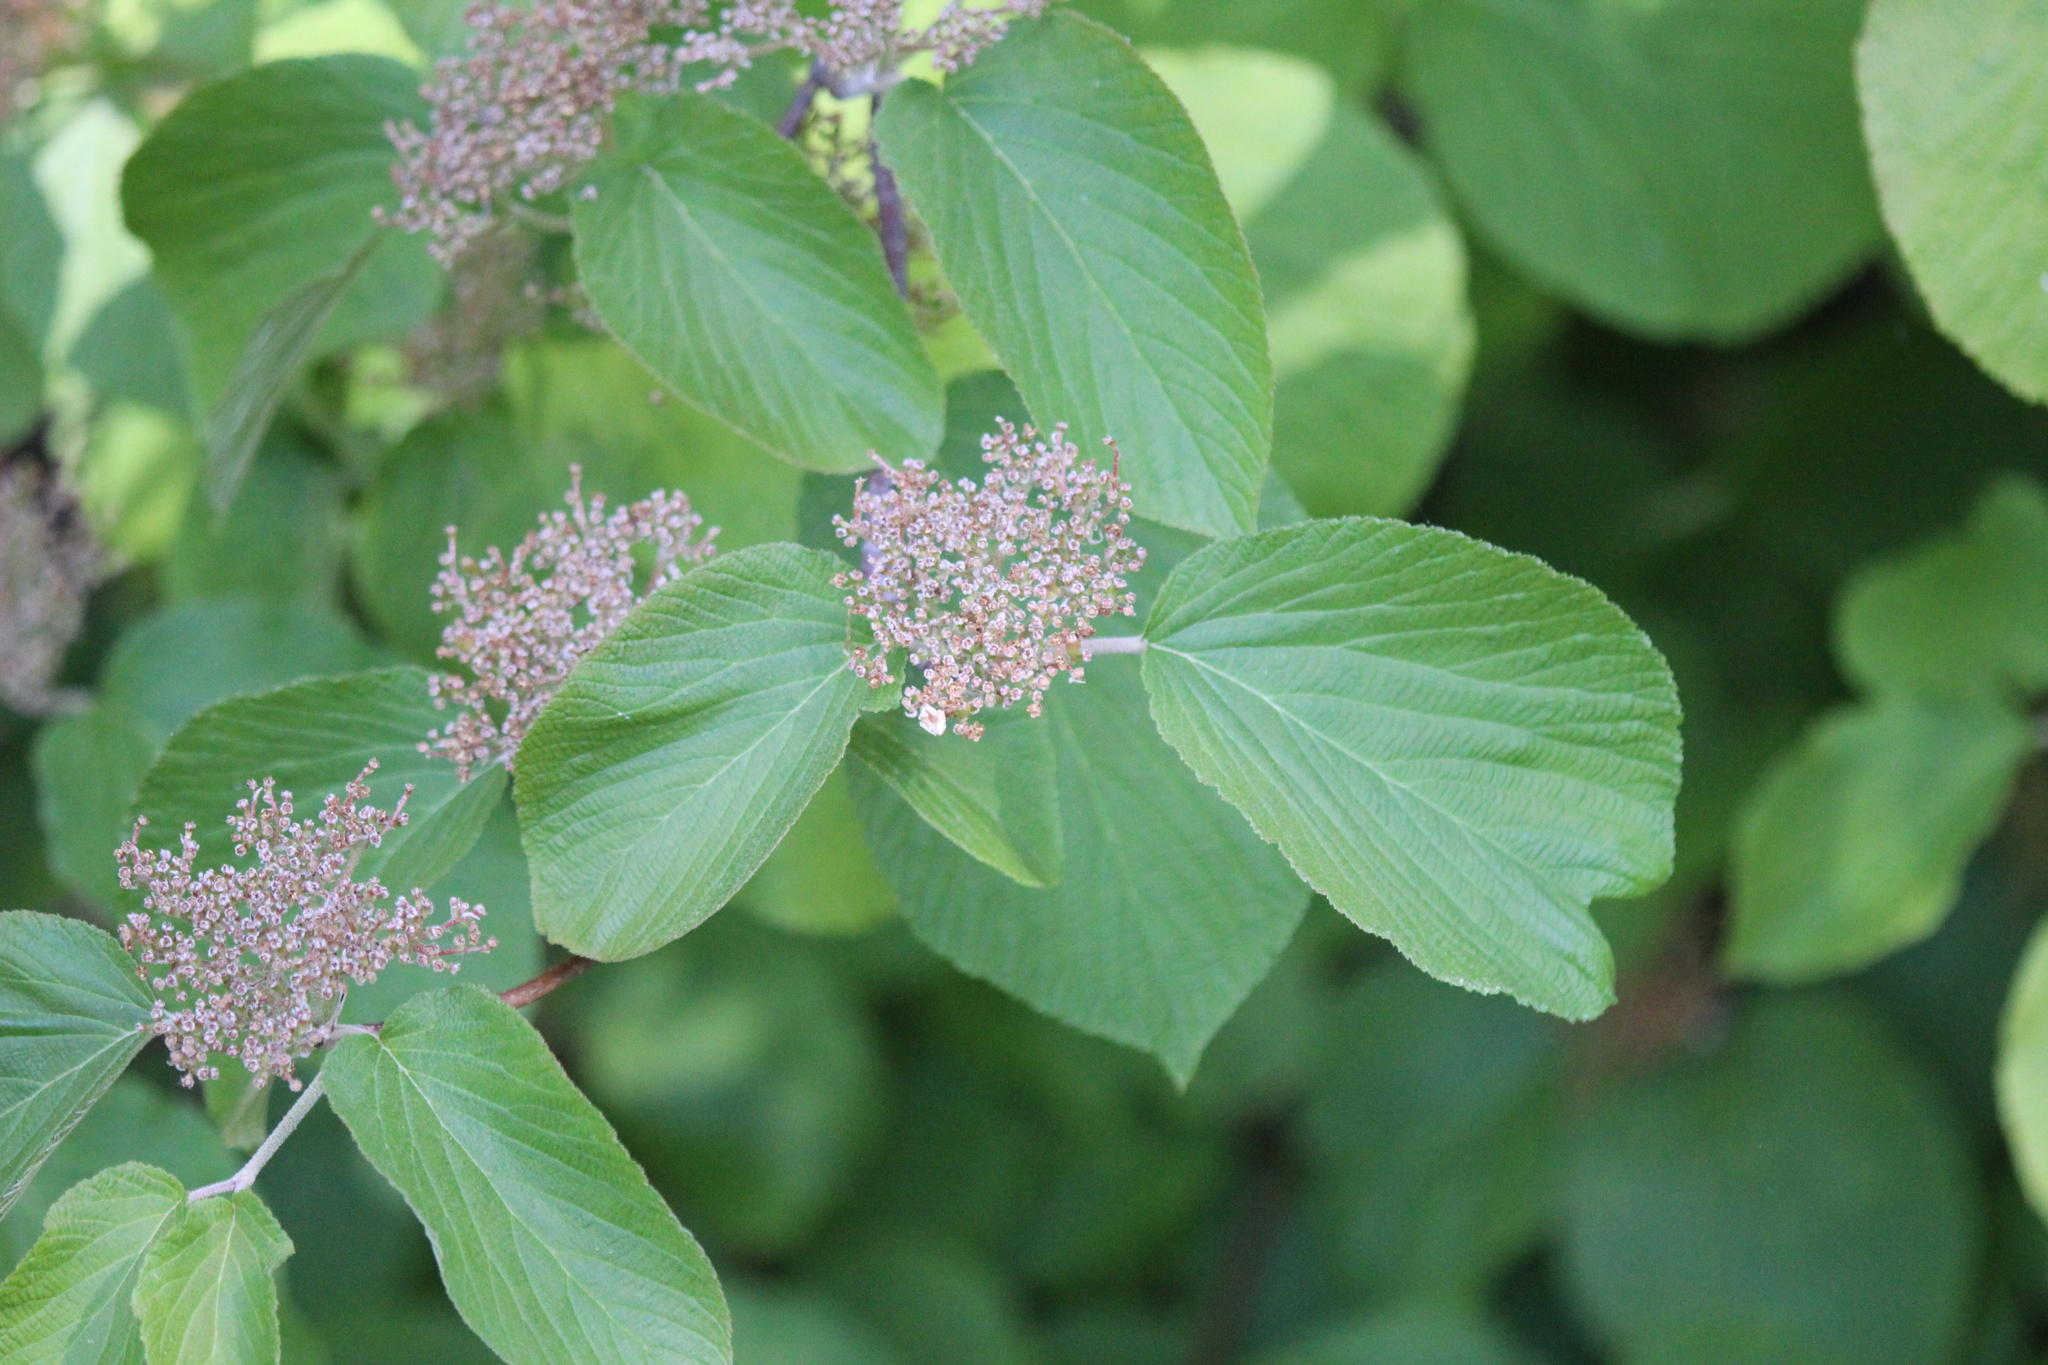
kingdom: Plantae
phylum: Tracheophyta
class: Magnoliopsida
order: Dipsacales
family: Viburnaceae
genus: Viburnum
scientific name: Viburnum lantanoides
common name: Hobblebush
